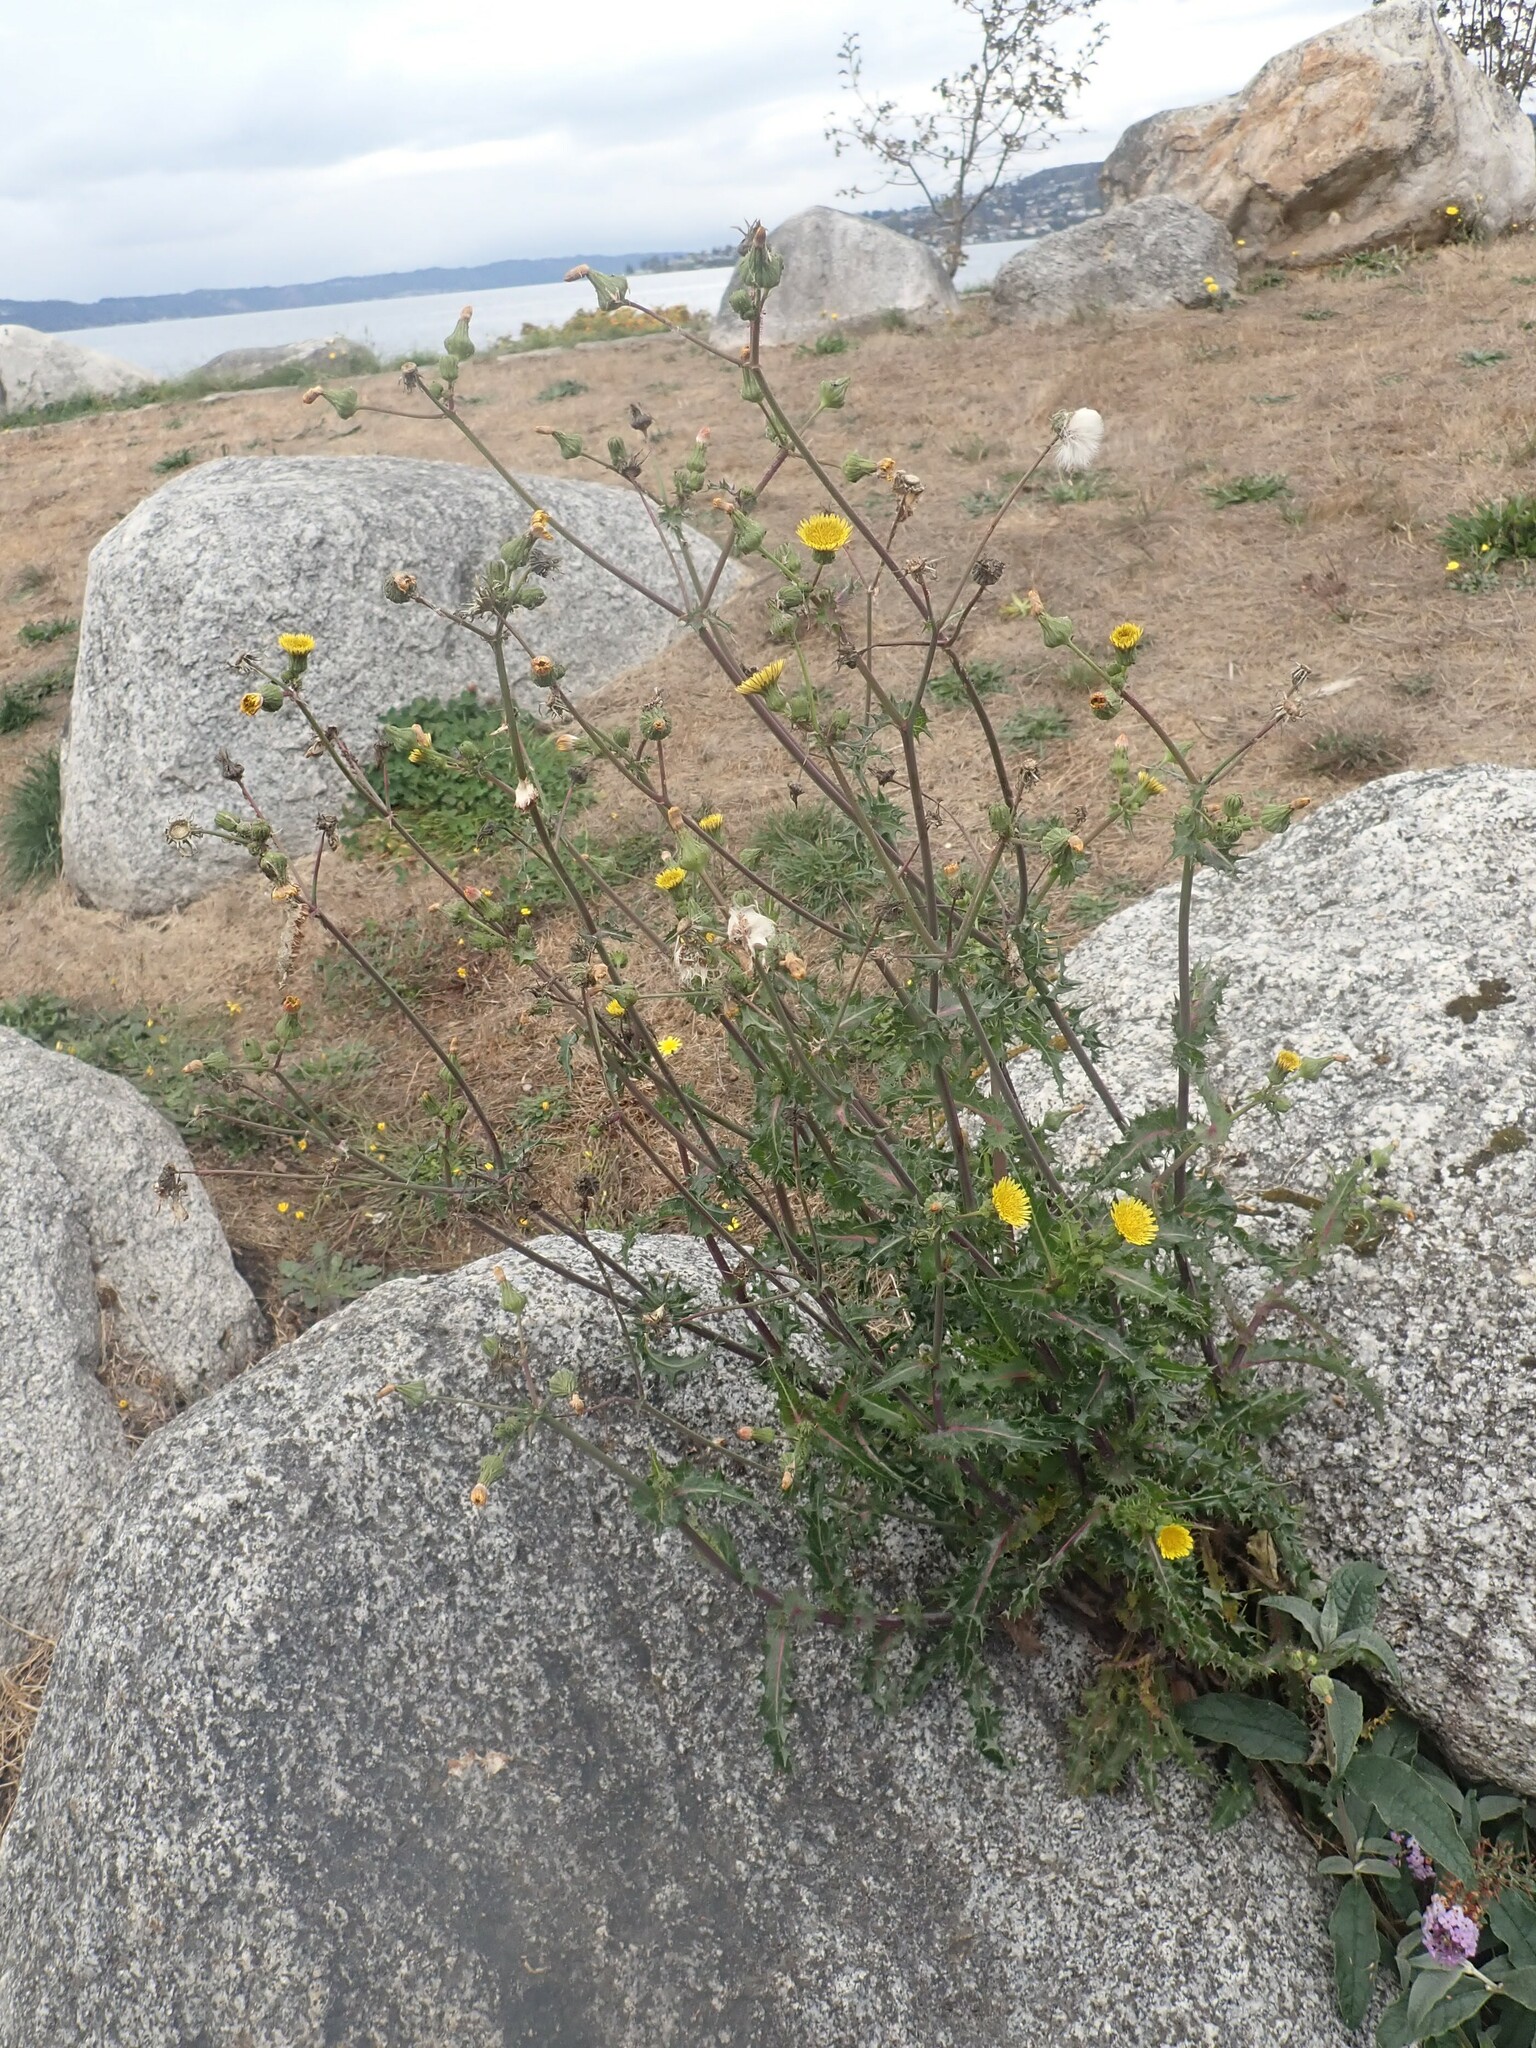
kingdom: Plantae
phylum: Tracheophyta
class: Magnoliopsida
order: Asterales
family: Asteraceae
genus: Sonchus
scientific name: Sonchus asper
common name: Prickly sow-thistle
